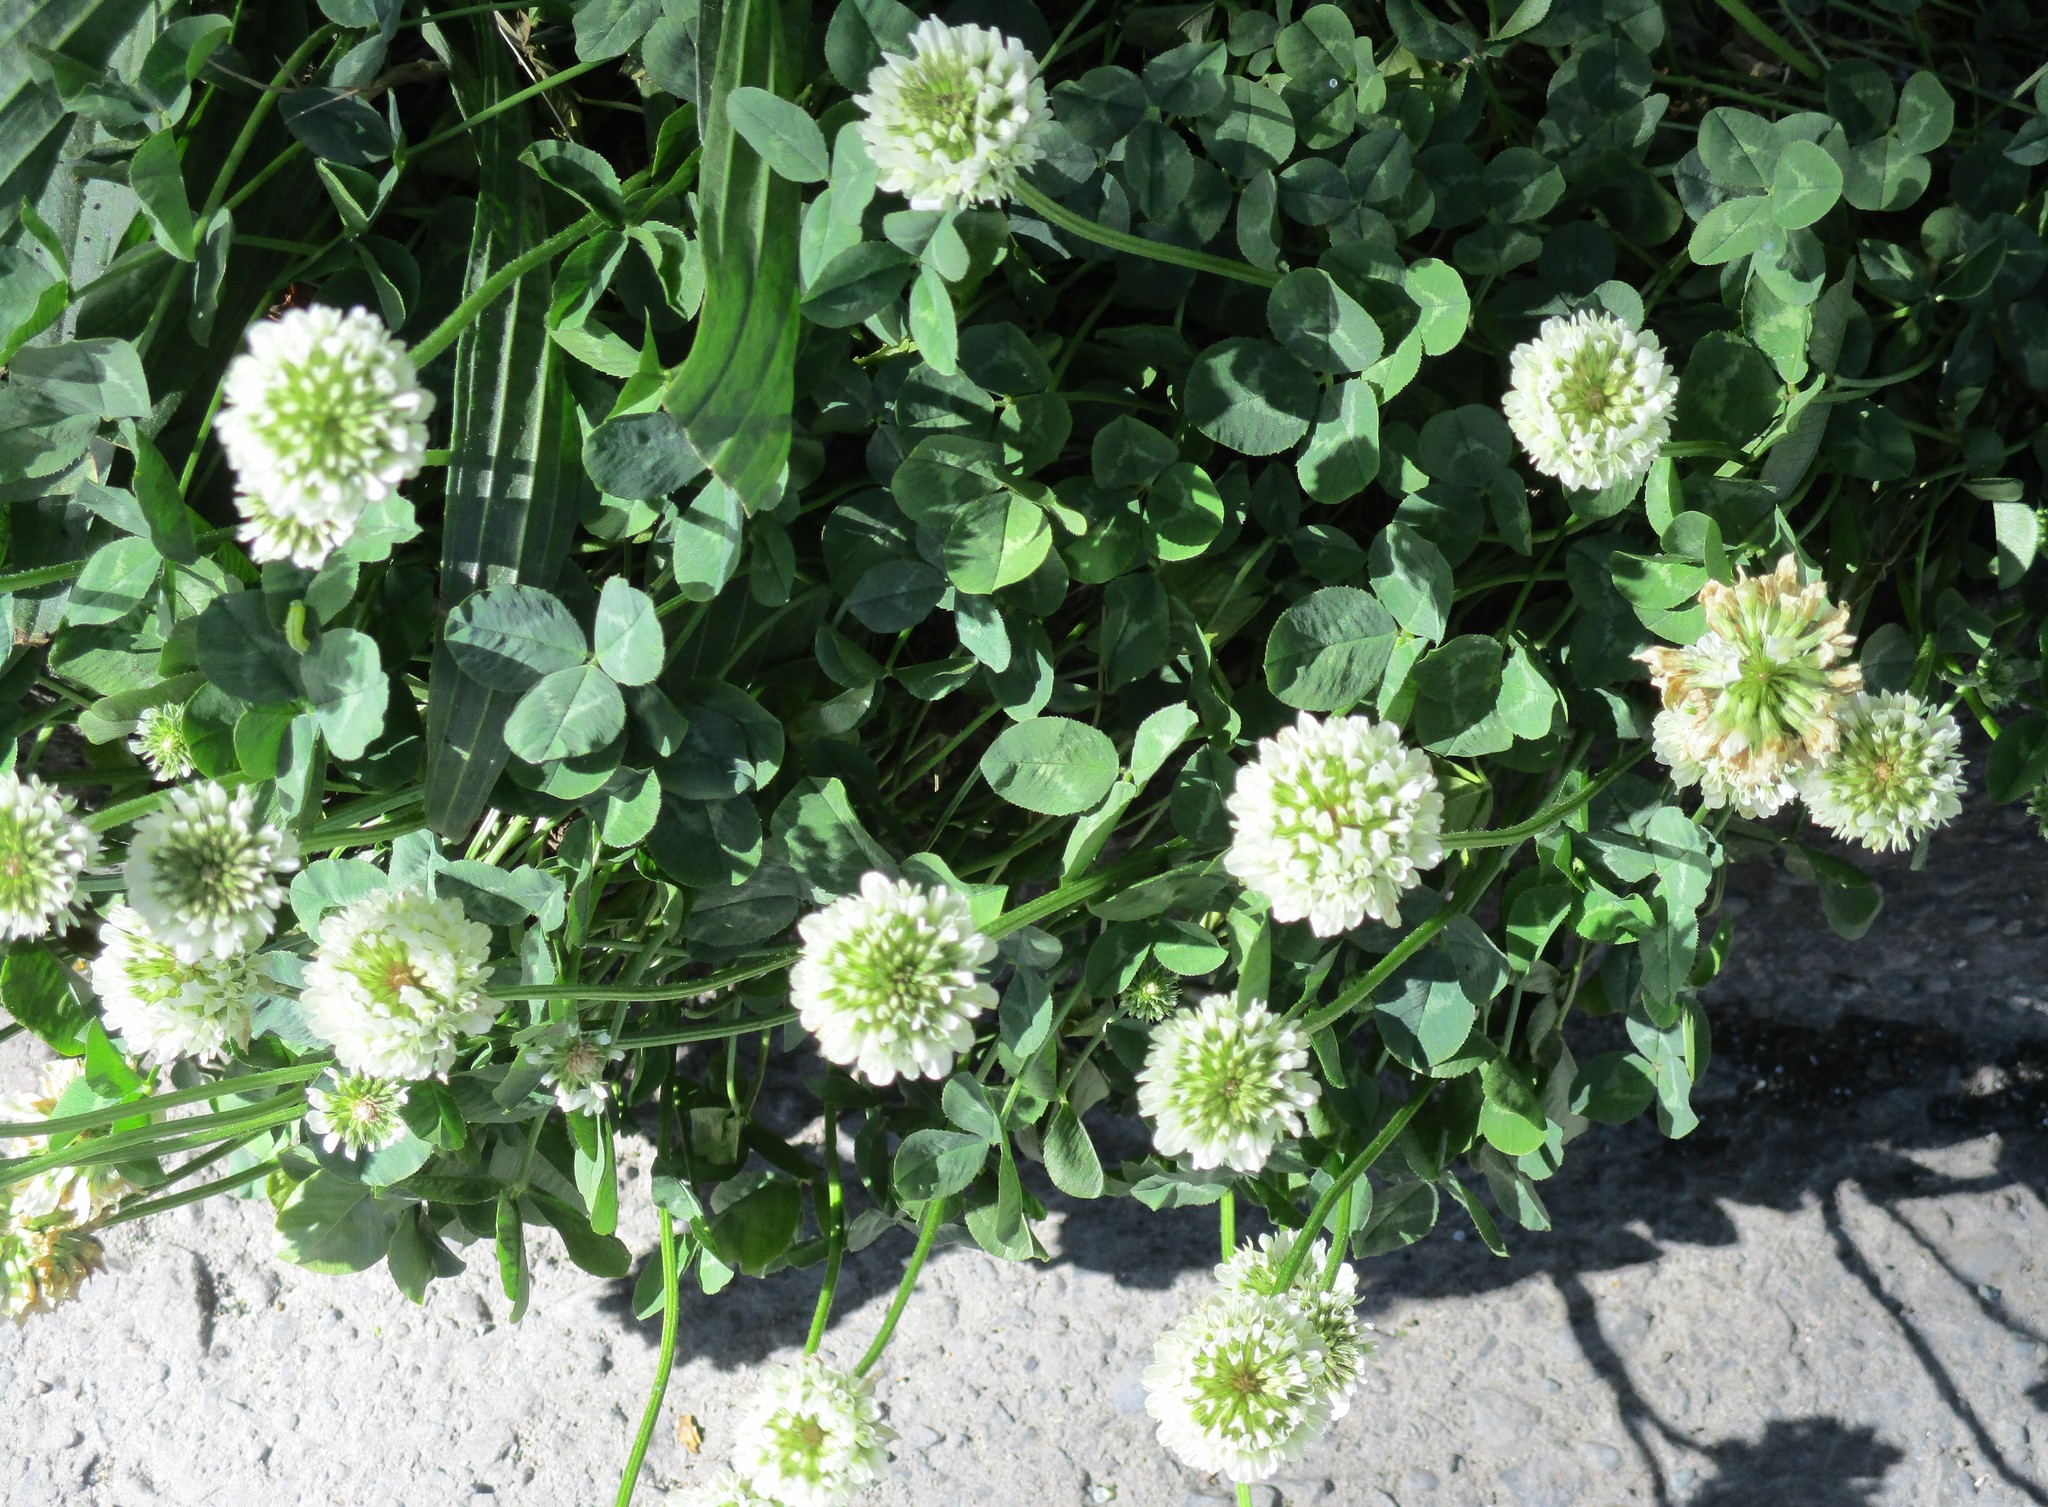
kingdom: Plantae
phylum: Tracheophyta
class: Magnoliopsida
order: Fabales
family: Fabaceae
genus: Trifolium
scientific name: Trifolium repens
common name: White clover
